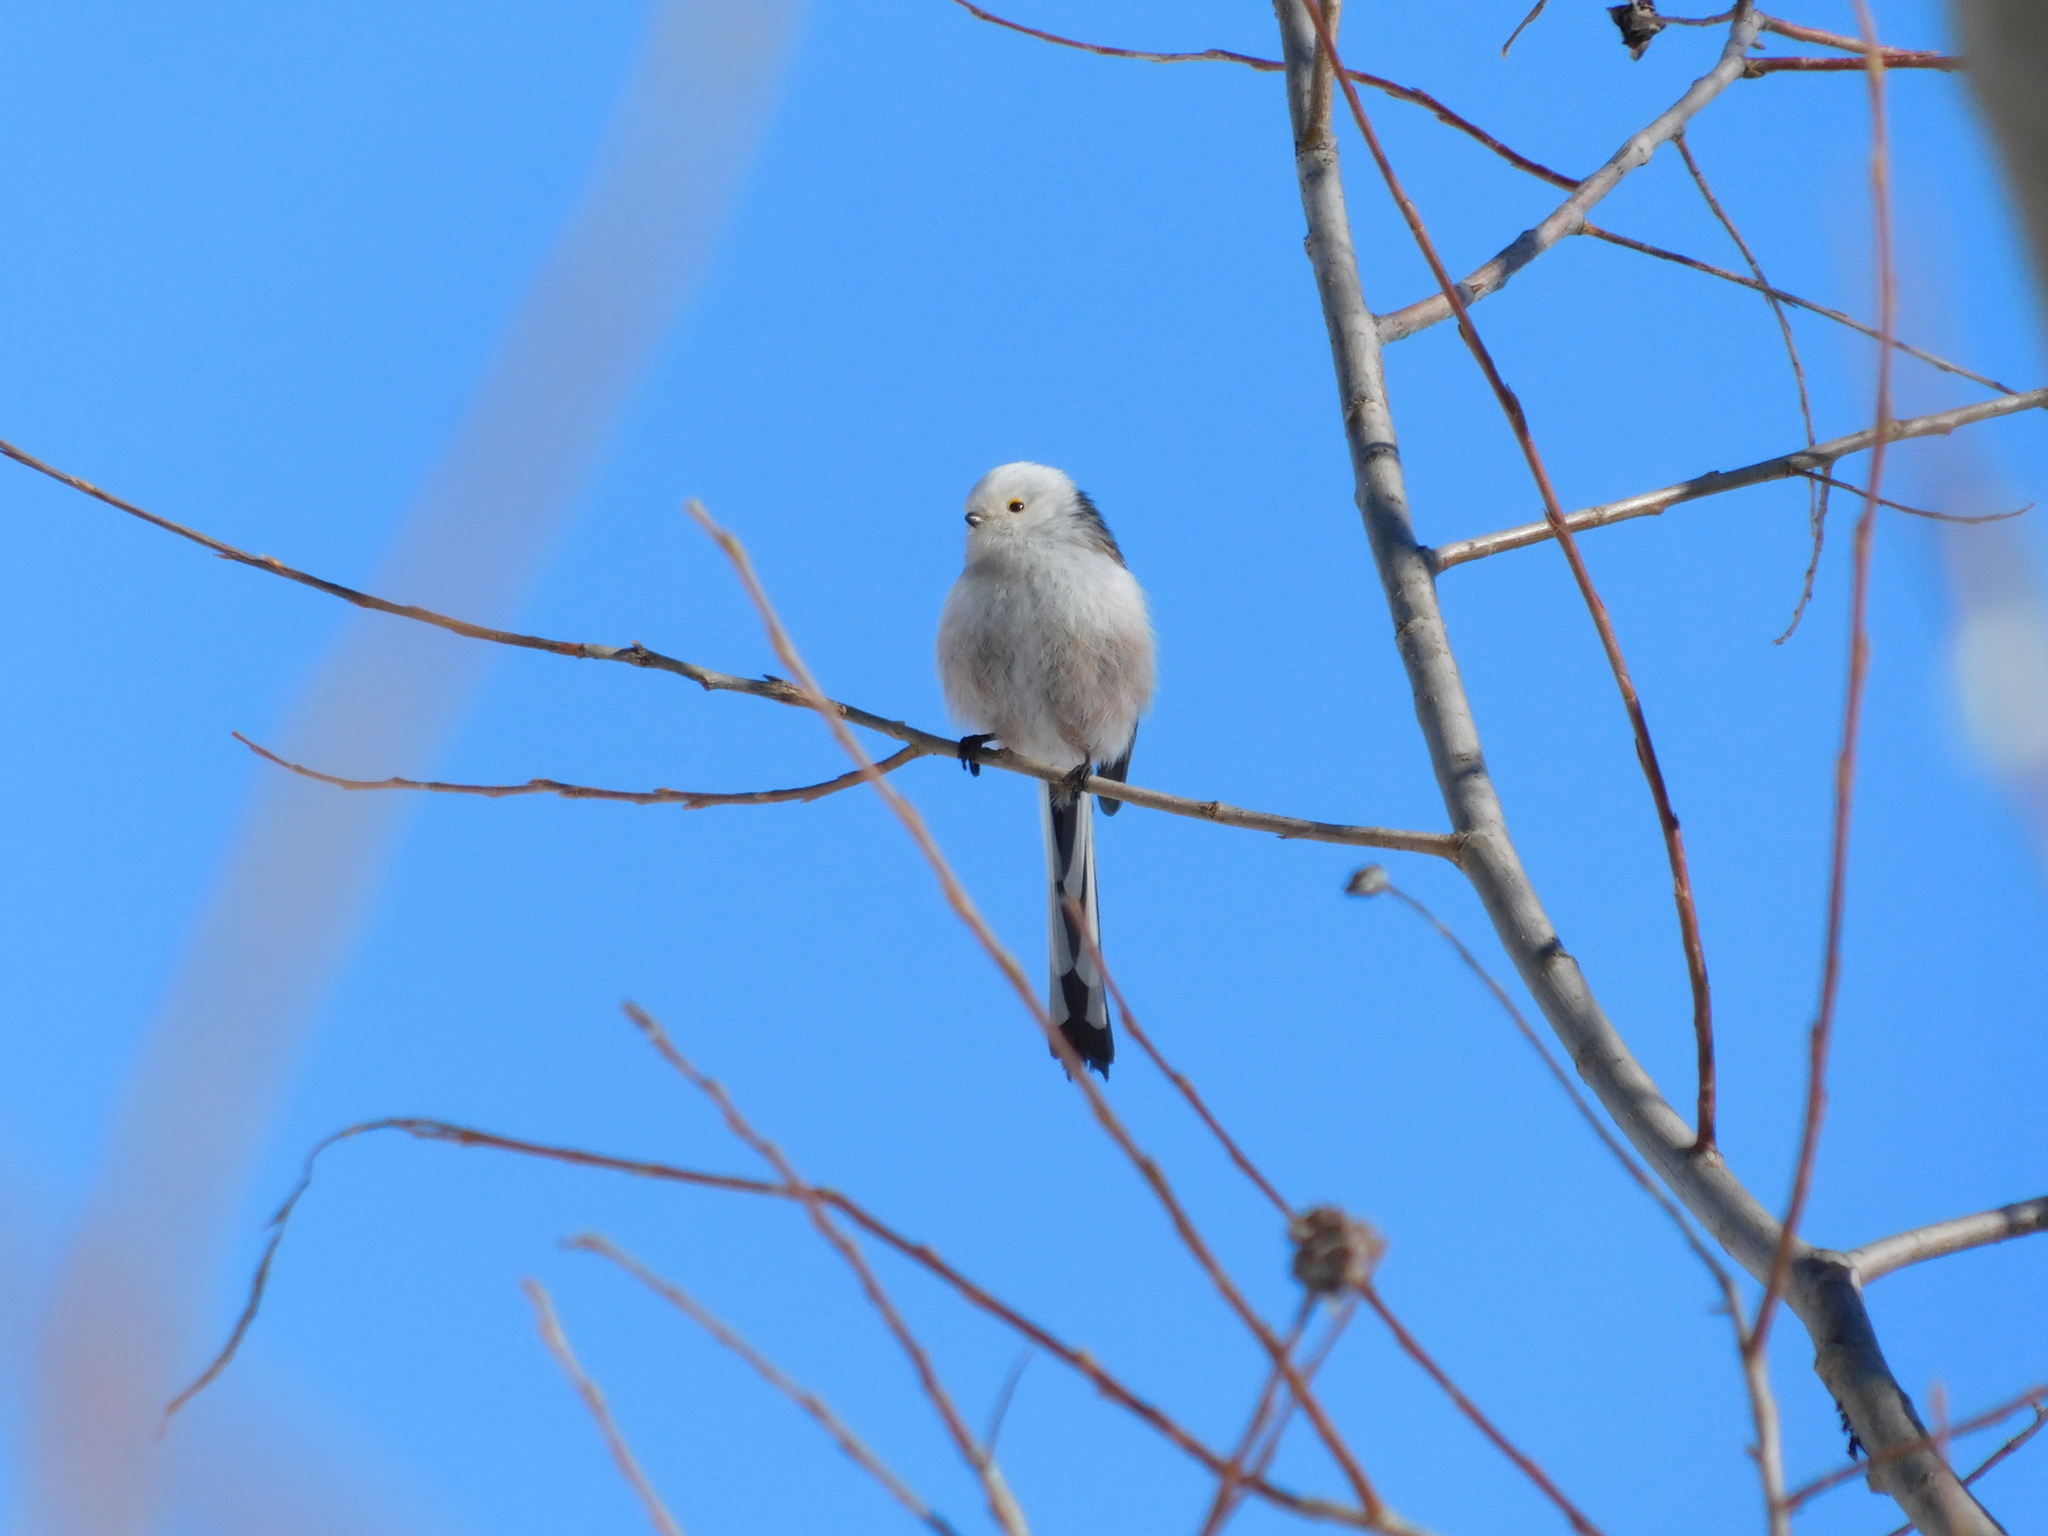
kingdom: Animalia
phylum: Chordata
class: Aves
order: Passeriformes
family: Aegithalidae
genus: Aegithalos
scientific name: Aegithalos caudatus
